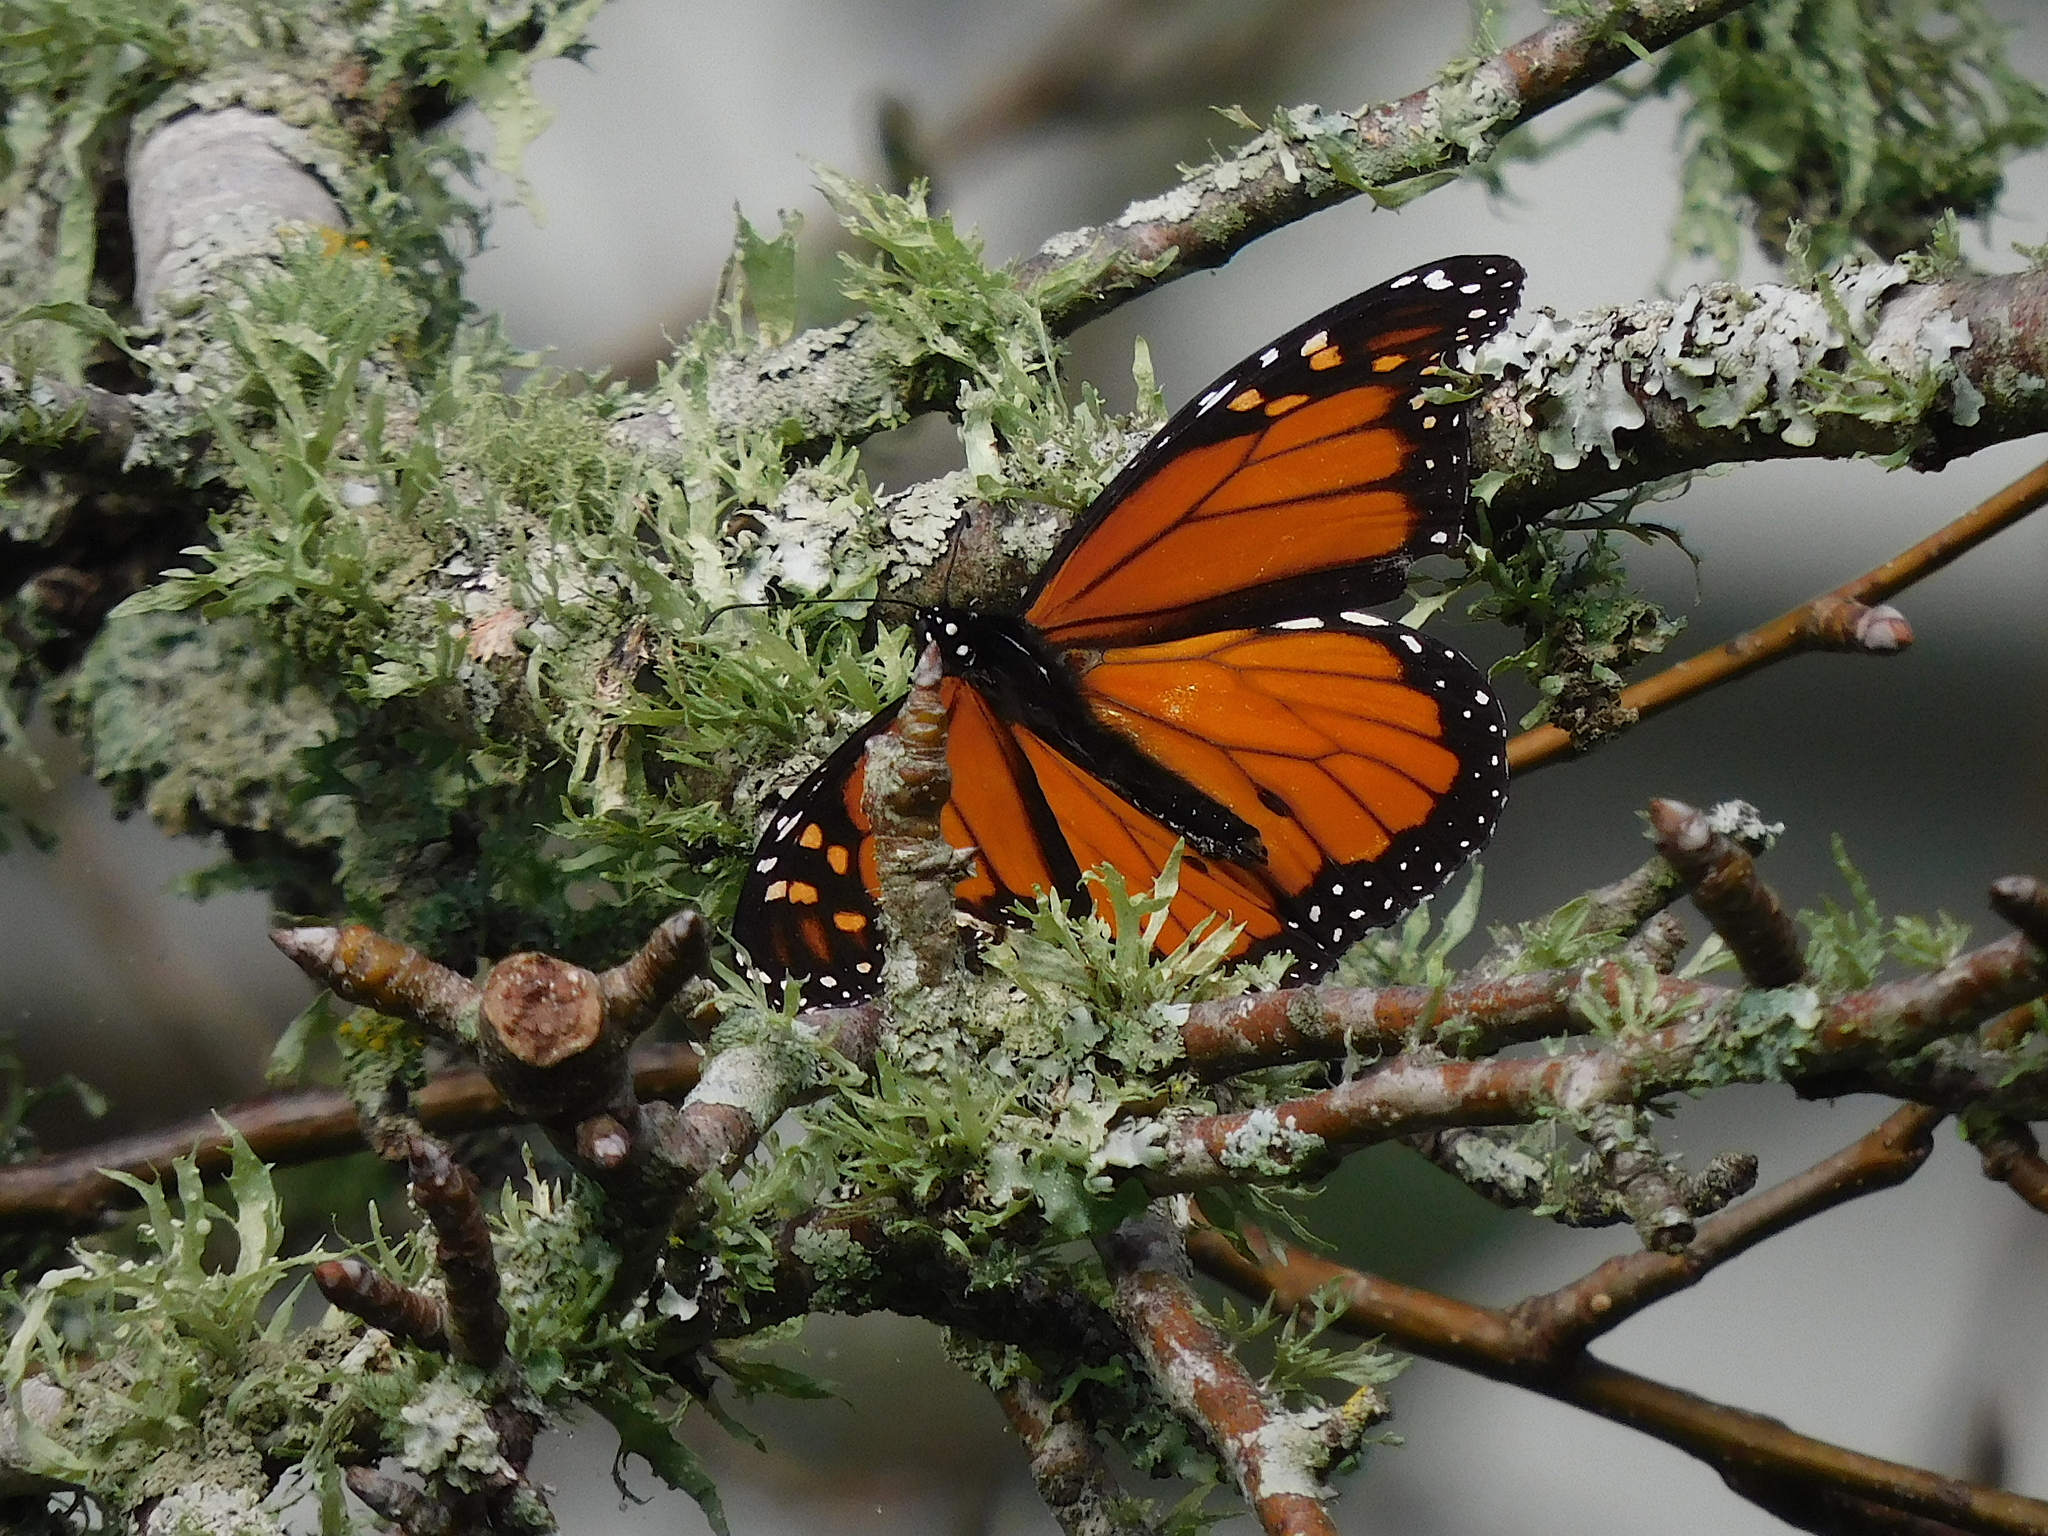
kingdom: Animalia
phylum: Arthropoda
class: Insecta
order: Lepidoptera
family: Nymphalidae
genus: Danaus
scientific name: Danaus plexippus
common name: Monarch
